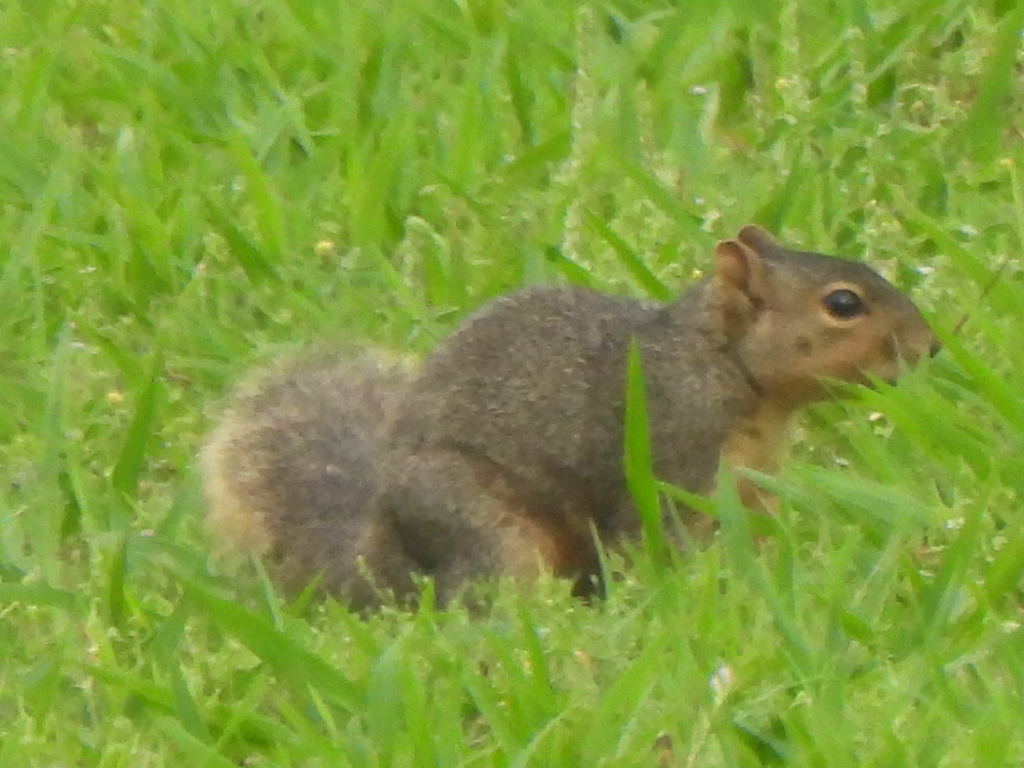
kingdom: Animalia
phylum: Chordata
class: Mammalia
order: Rodentia
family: Sciuridae
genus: Sciurus
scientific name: Sciurus niger
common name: Fox squirrel
